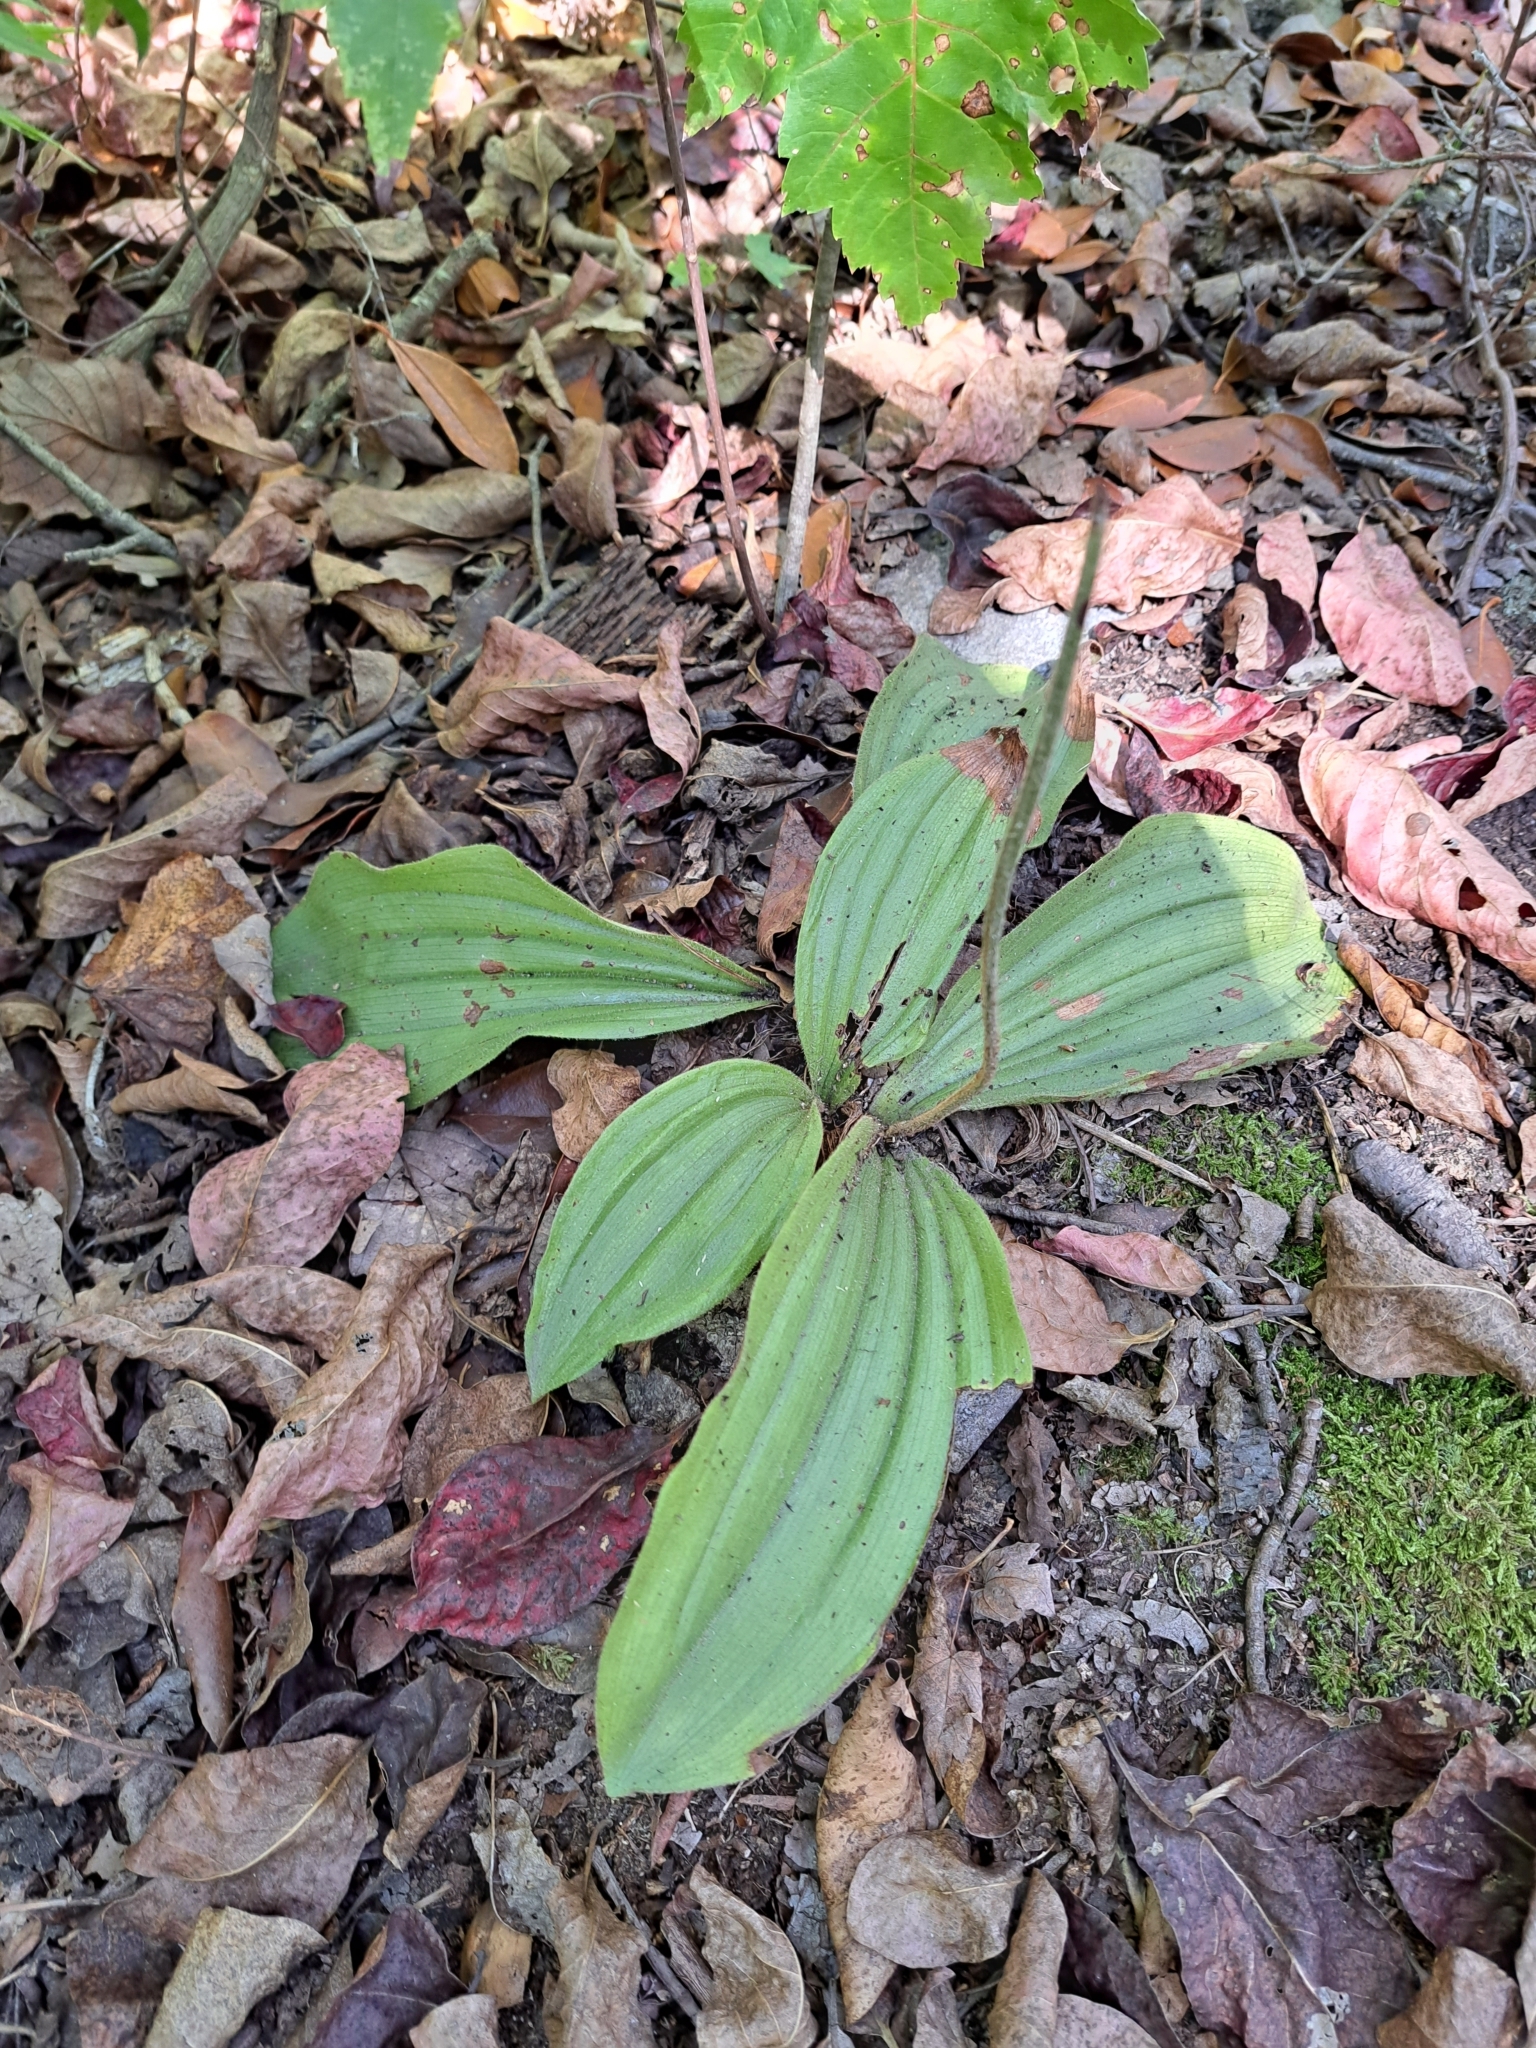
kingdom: Plantae
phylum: Tracheophyta
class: Liliopsida
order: Asparagales
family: Orchidaceae
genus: Cypripedium
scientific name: Cypripedium acaule
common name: Pink lady's-slipper
